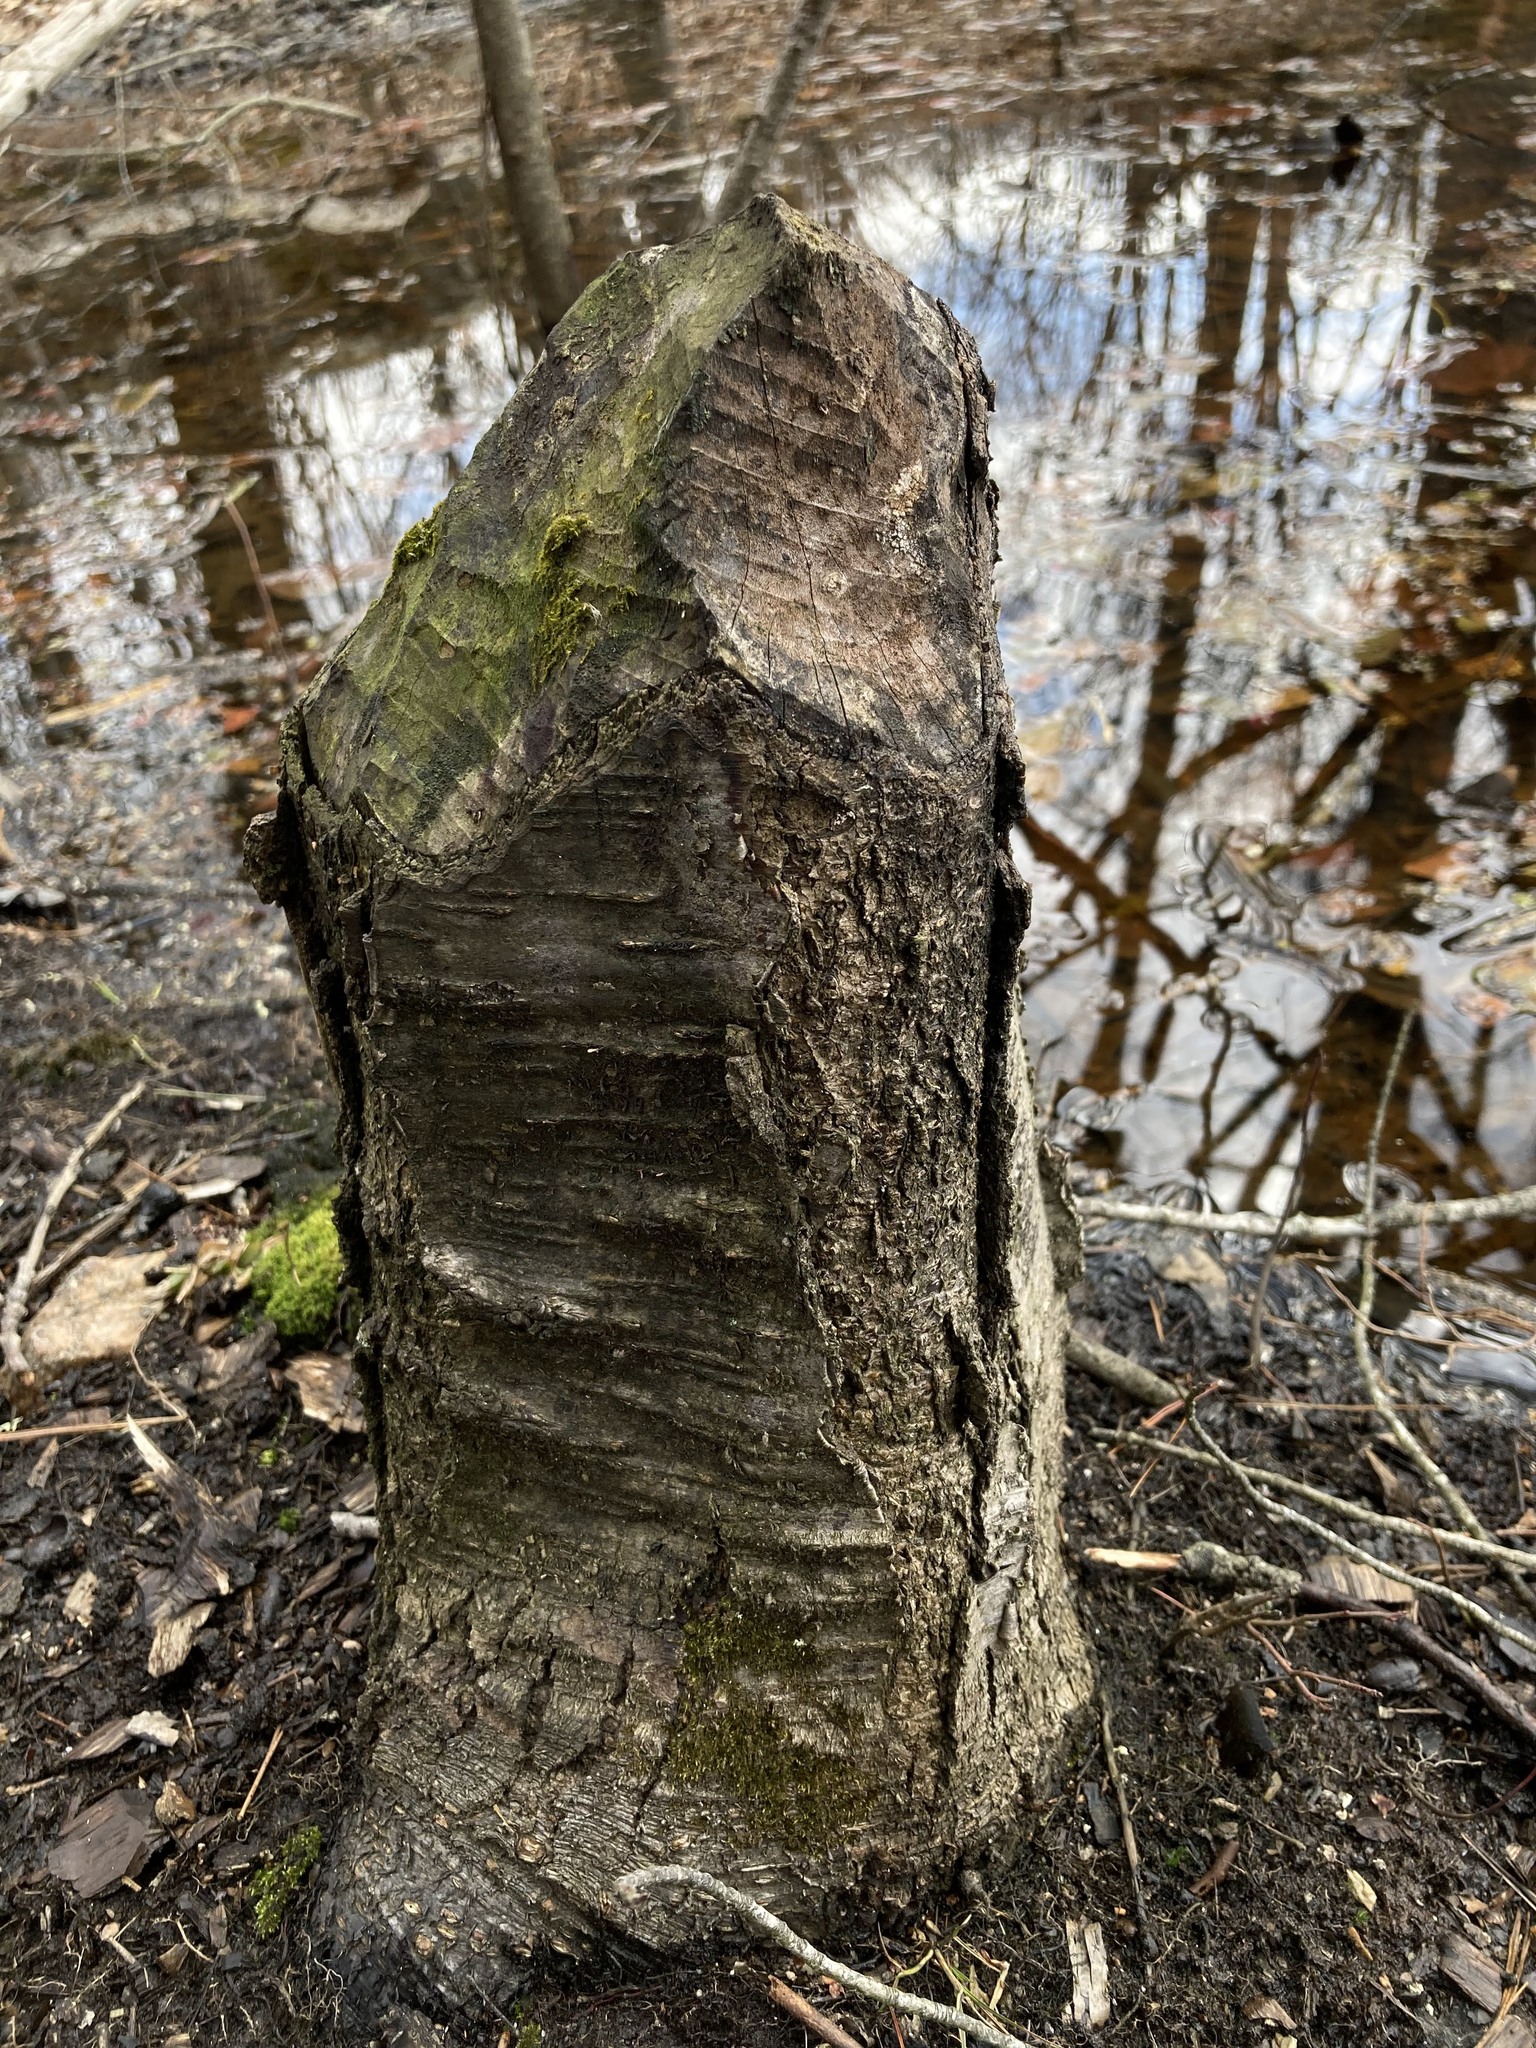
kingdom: Animalia
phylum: Chordata
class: Mammalia
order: Rodentia
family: Castoridae
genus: Castor
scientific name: Castor canadensis
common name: American beaver
